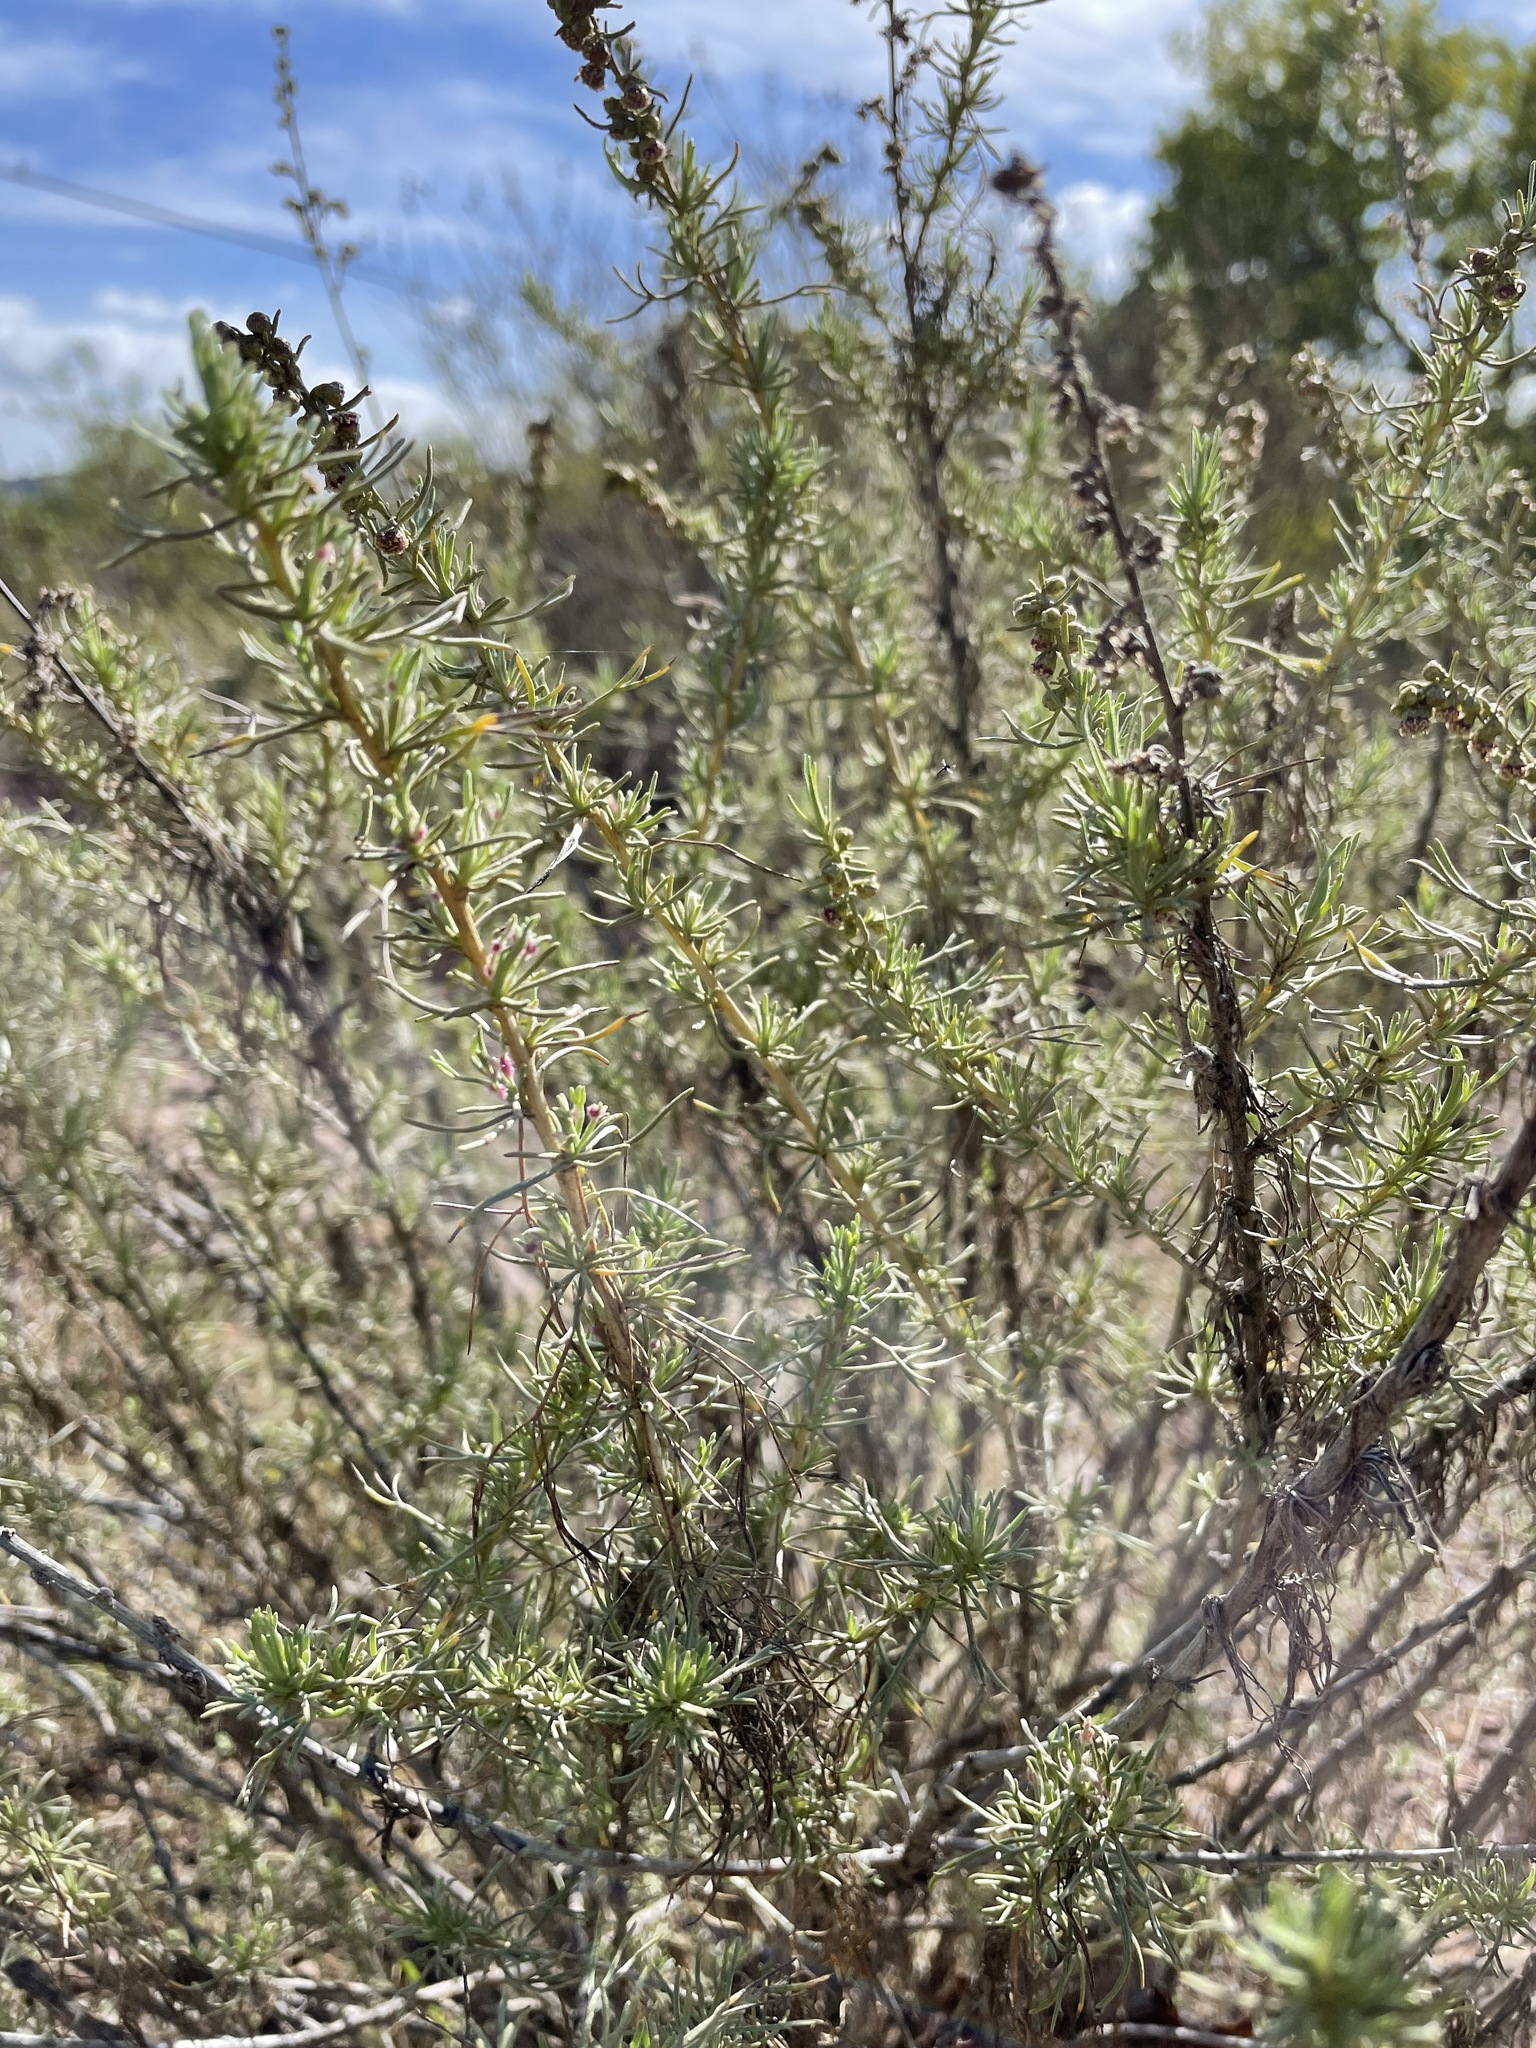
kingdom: Plantae
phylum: Tracheophyta
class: Magnoliopsida
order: Asterales
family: Asteraceae
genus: Artemisia
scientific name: Artemisia californica
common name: California sagebrush
